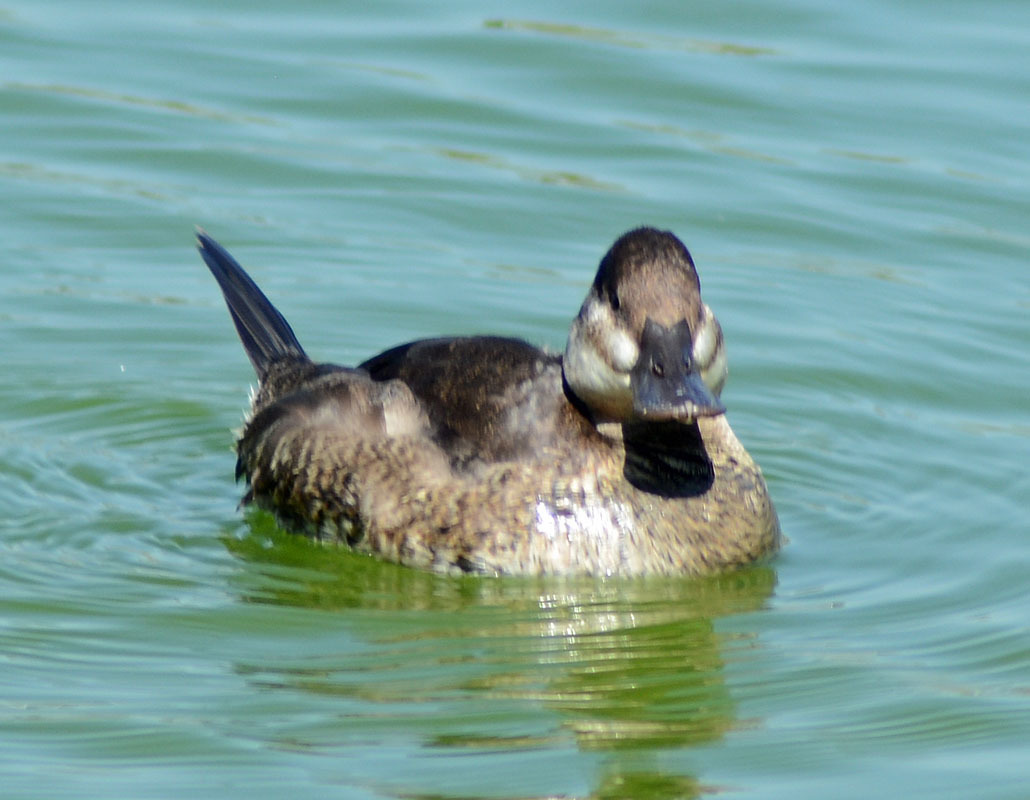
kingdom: Animalia
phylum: Chordata
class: Aves
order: Anseriformes
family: Anatidae
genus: Oxyura
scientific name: Oxyura jamaicensis
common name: Ruddy duck
